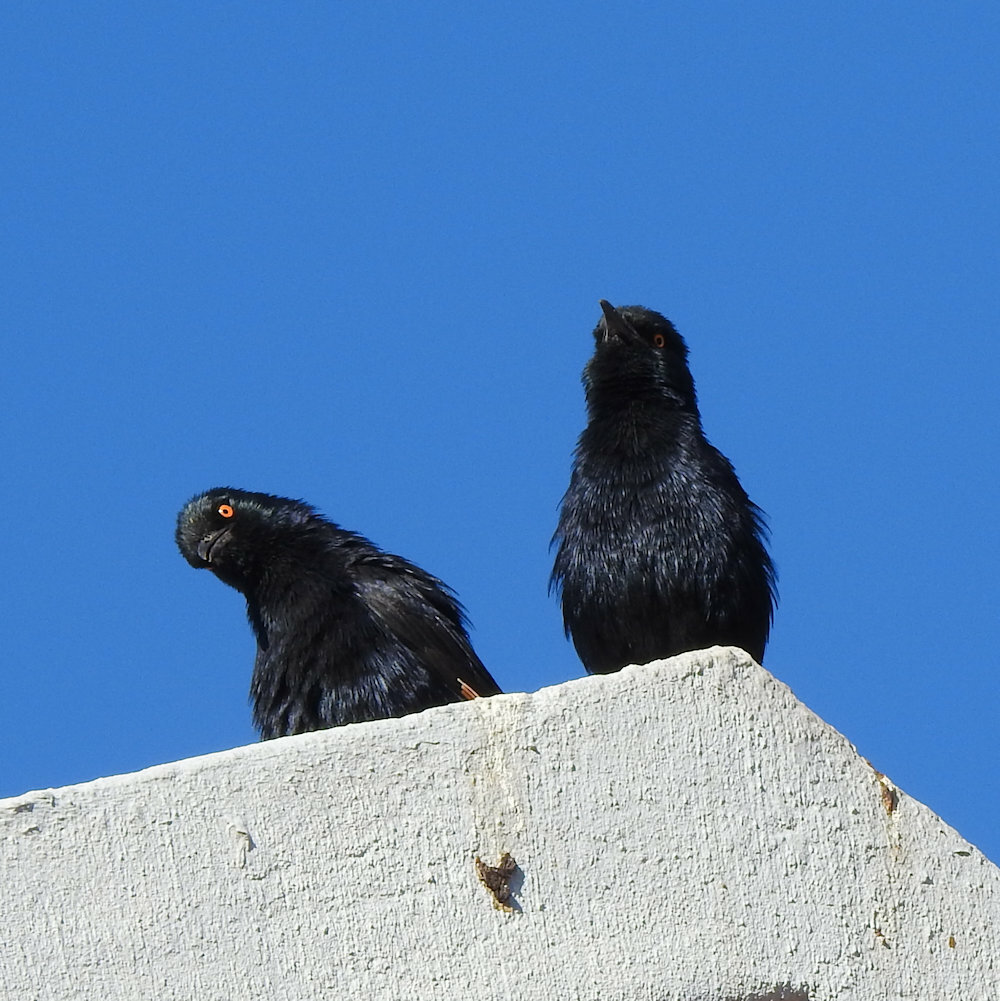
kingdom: Animalia
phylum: Chordata
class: Aves
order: Passeriformes
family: Sturnidae
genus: Onychognathus
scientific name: Onychognathus nabouroup
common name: Pale-winged starling
